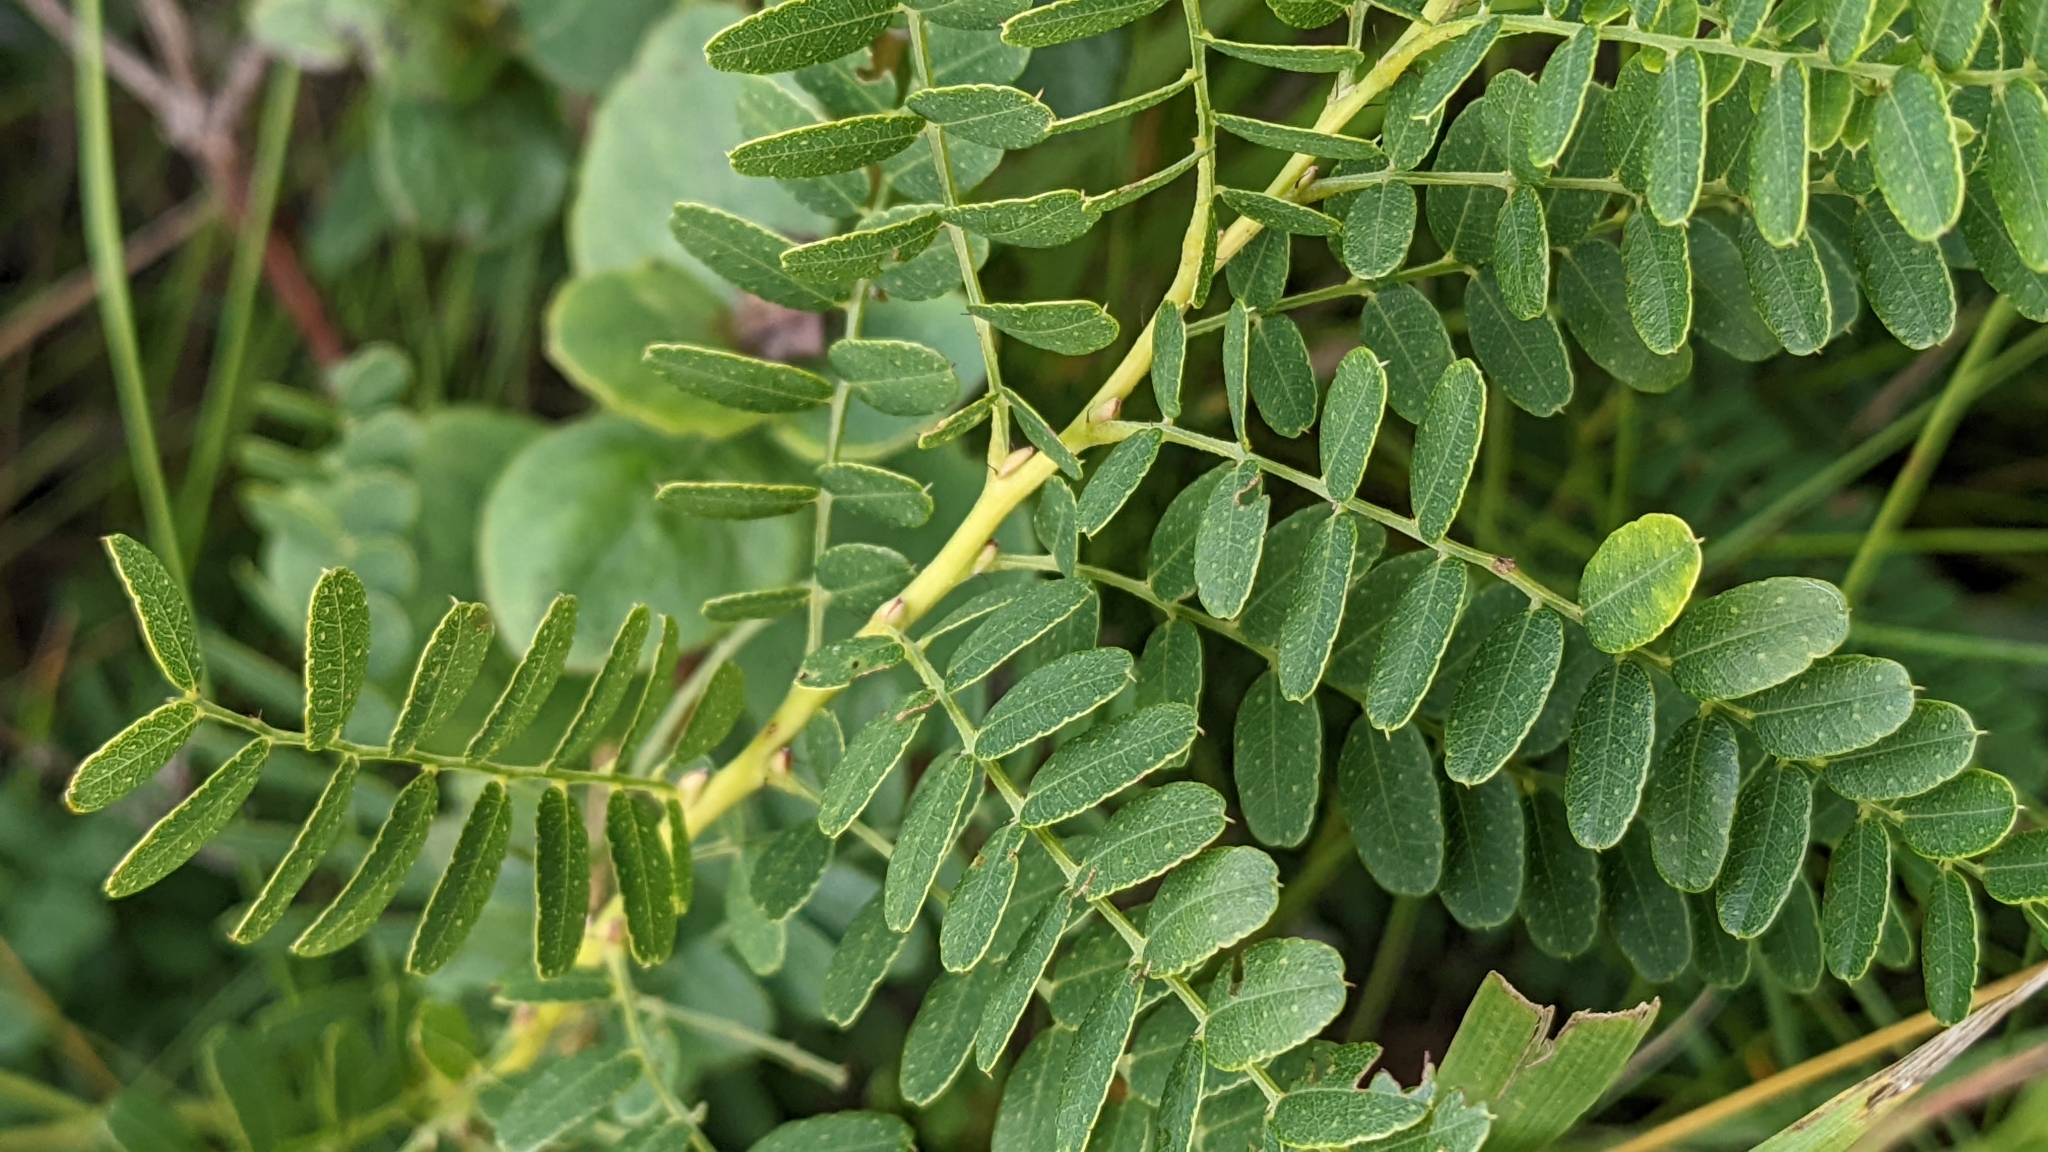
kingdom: Plantae
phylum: Tracheophyta
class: Magnoliopsida
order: Fabales
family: Fabaceae
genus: Amorpha
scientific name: Amorpha nana
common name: Fragrant false indigo
